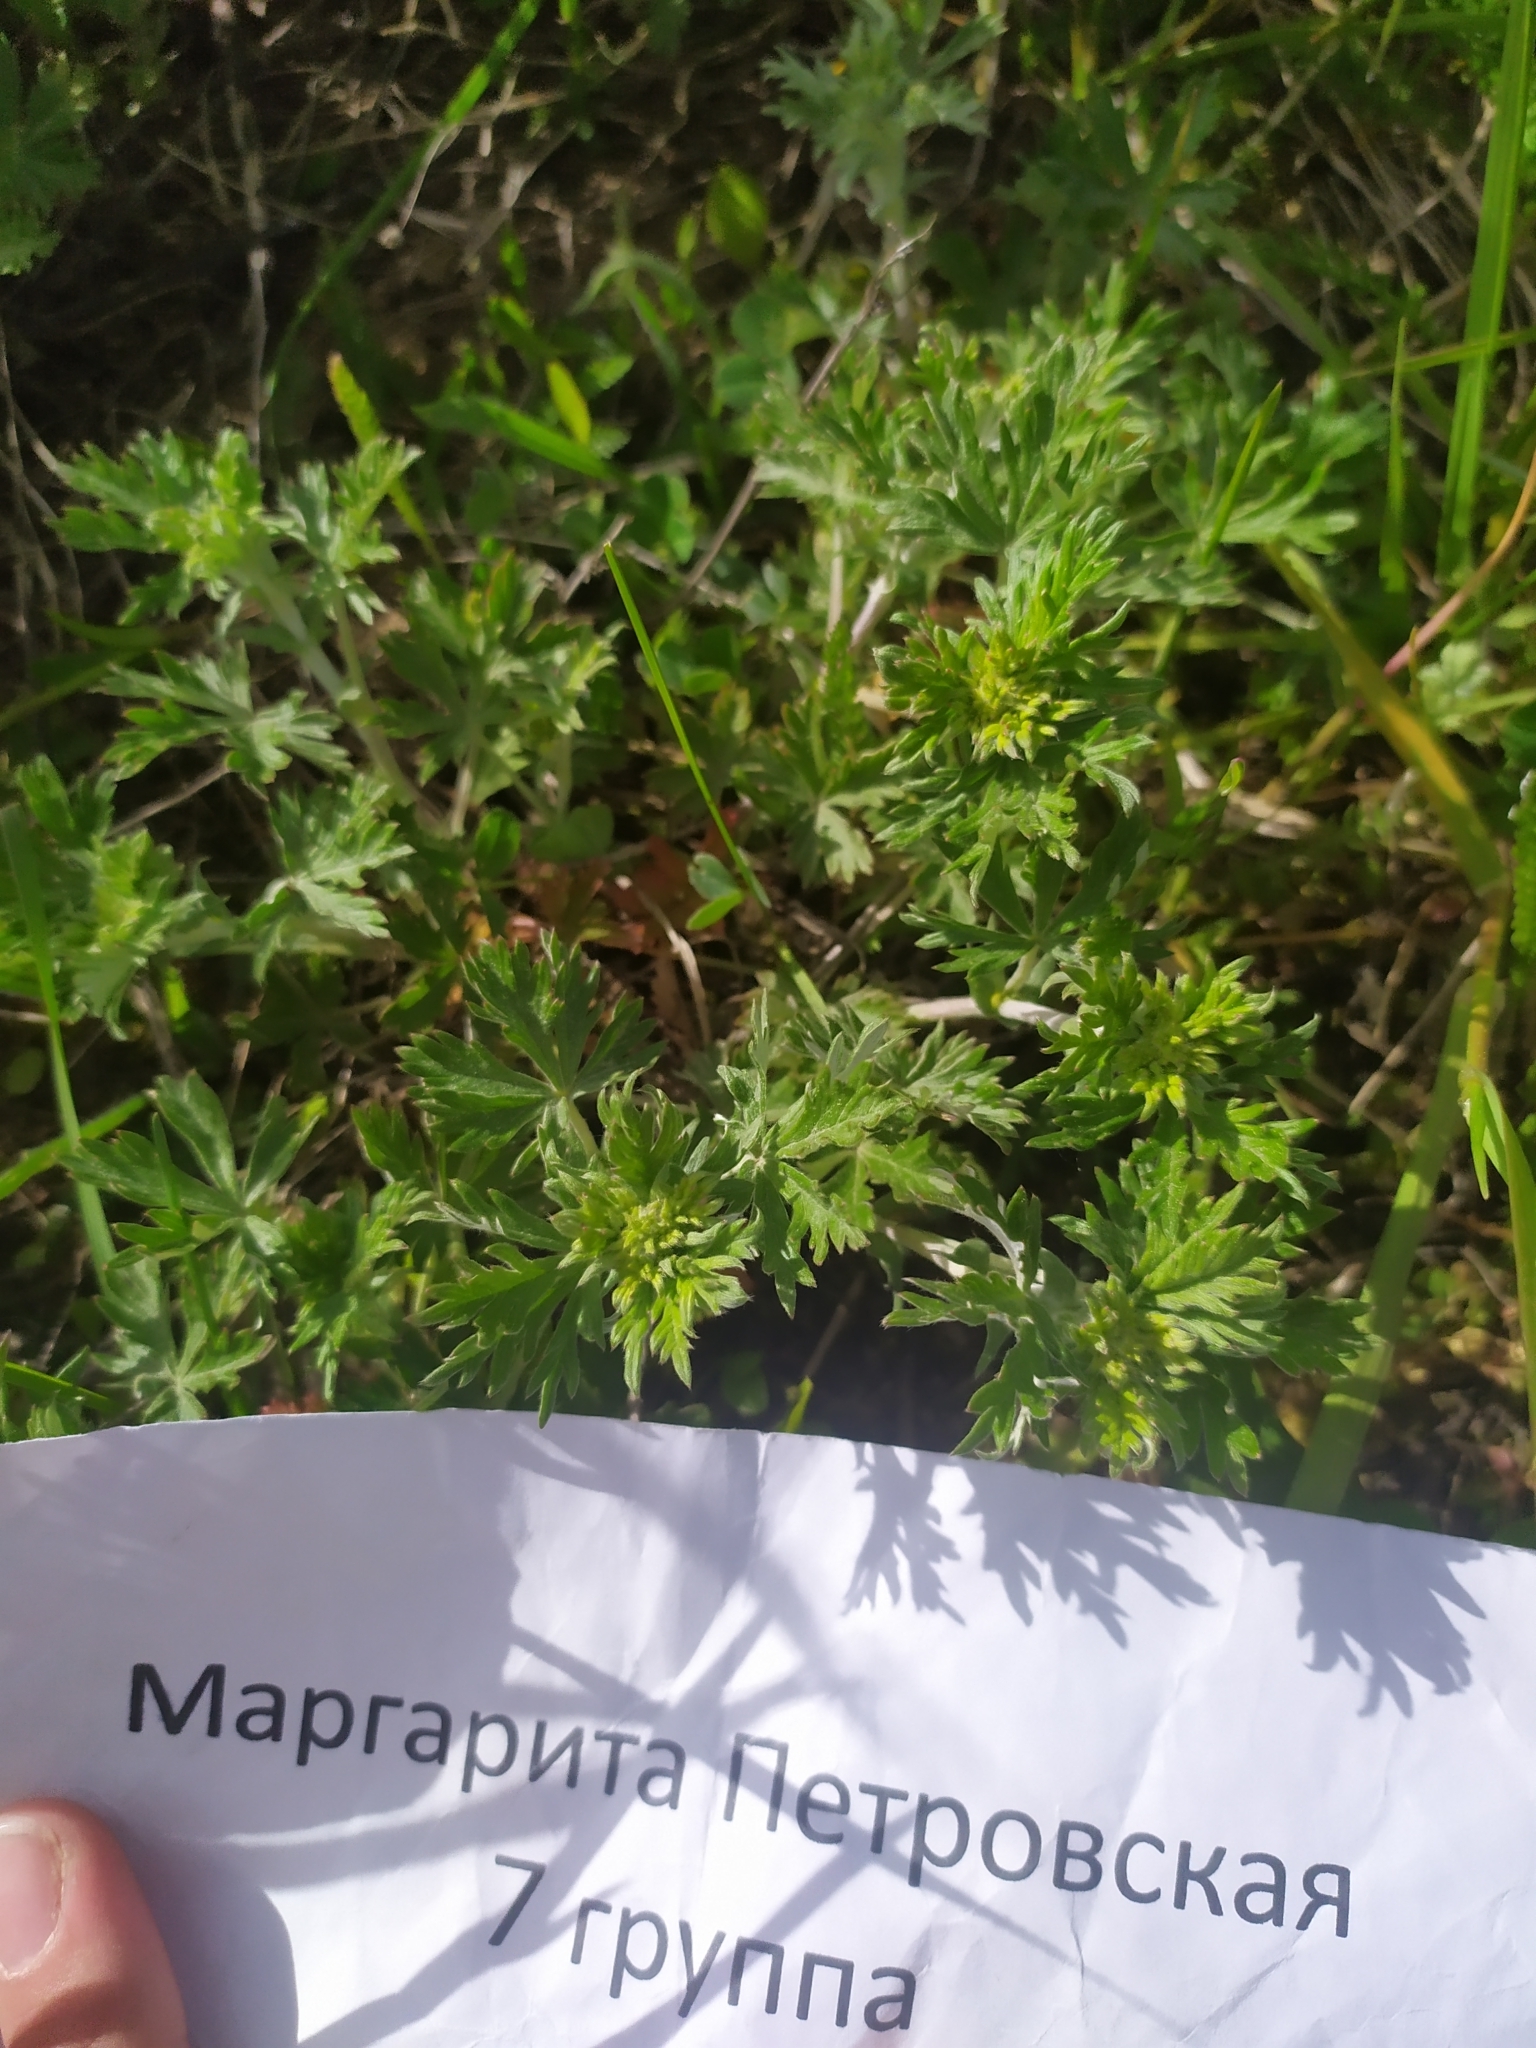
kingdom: Plantae
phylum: Tracheophyta
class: Magnoliopsida
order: Rosales
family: Rosaceae
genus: Potentilla
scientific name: Potentilla argentea
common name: Hoary cinquefoil
